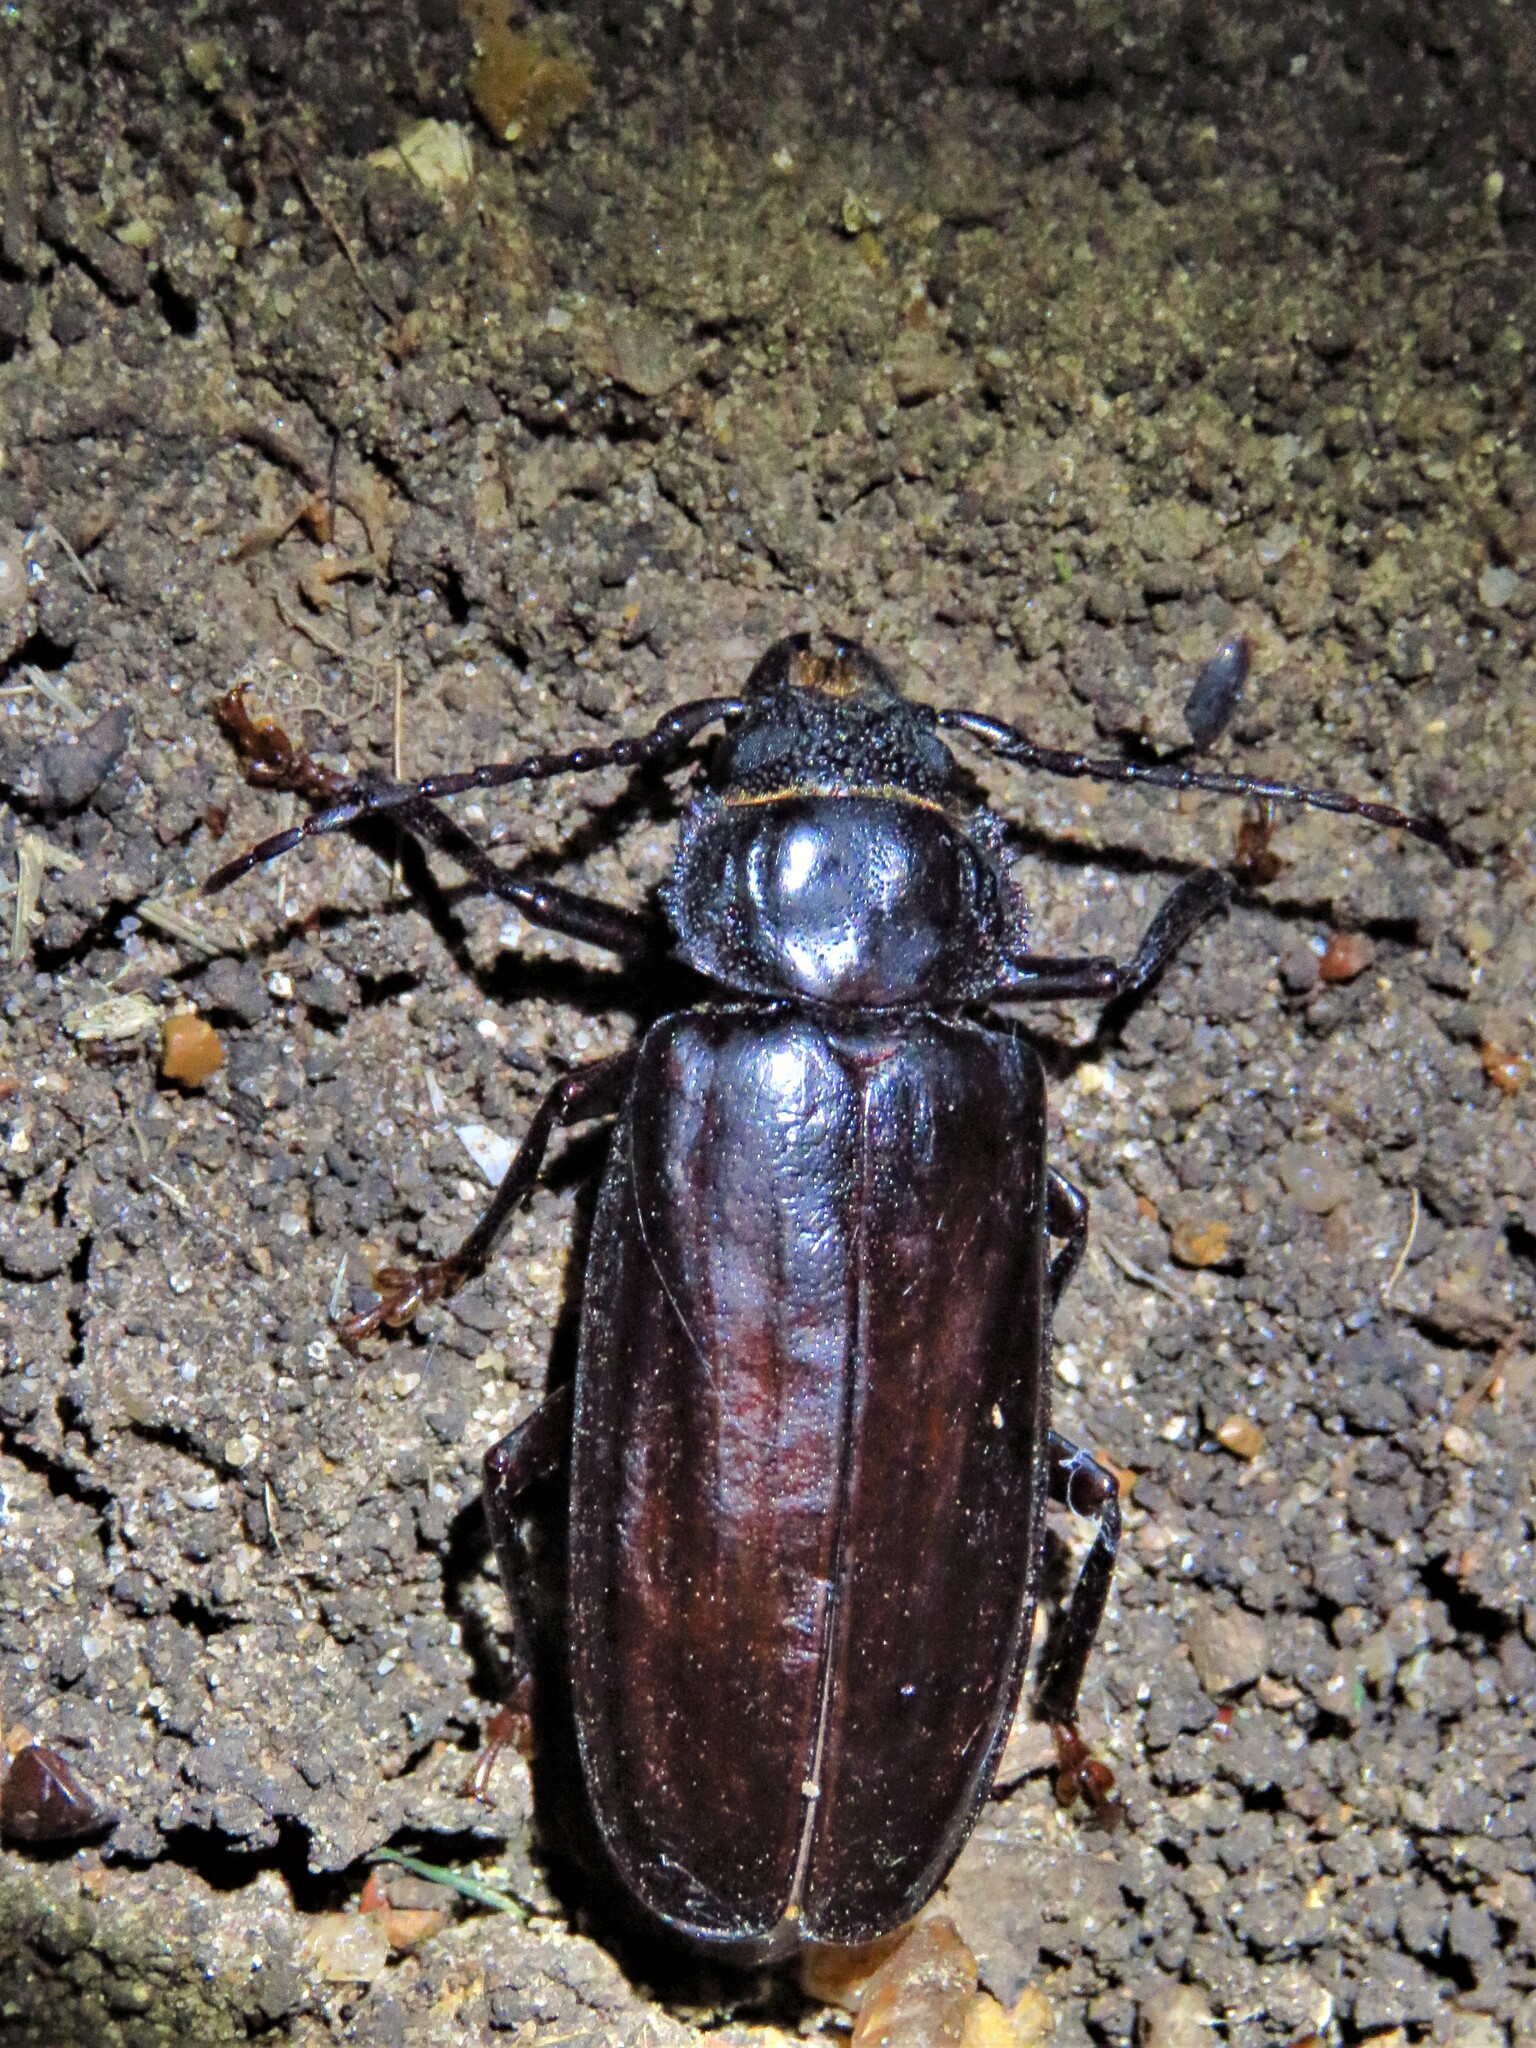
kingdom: Animalia
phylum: Arthropoda
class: Insecta
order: Coleoptera
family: Cerambycidae
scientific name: Cerambycidae
